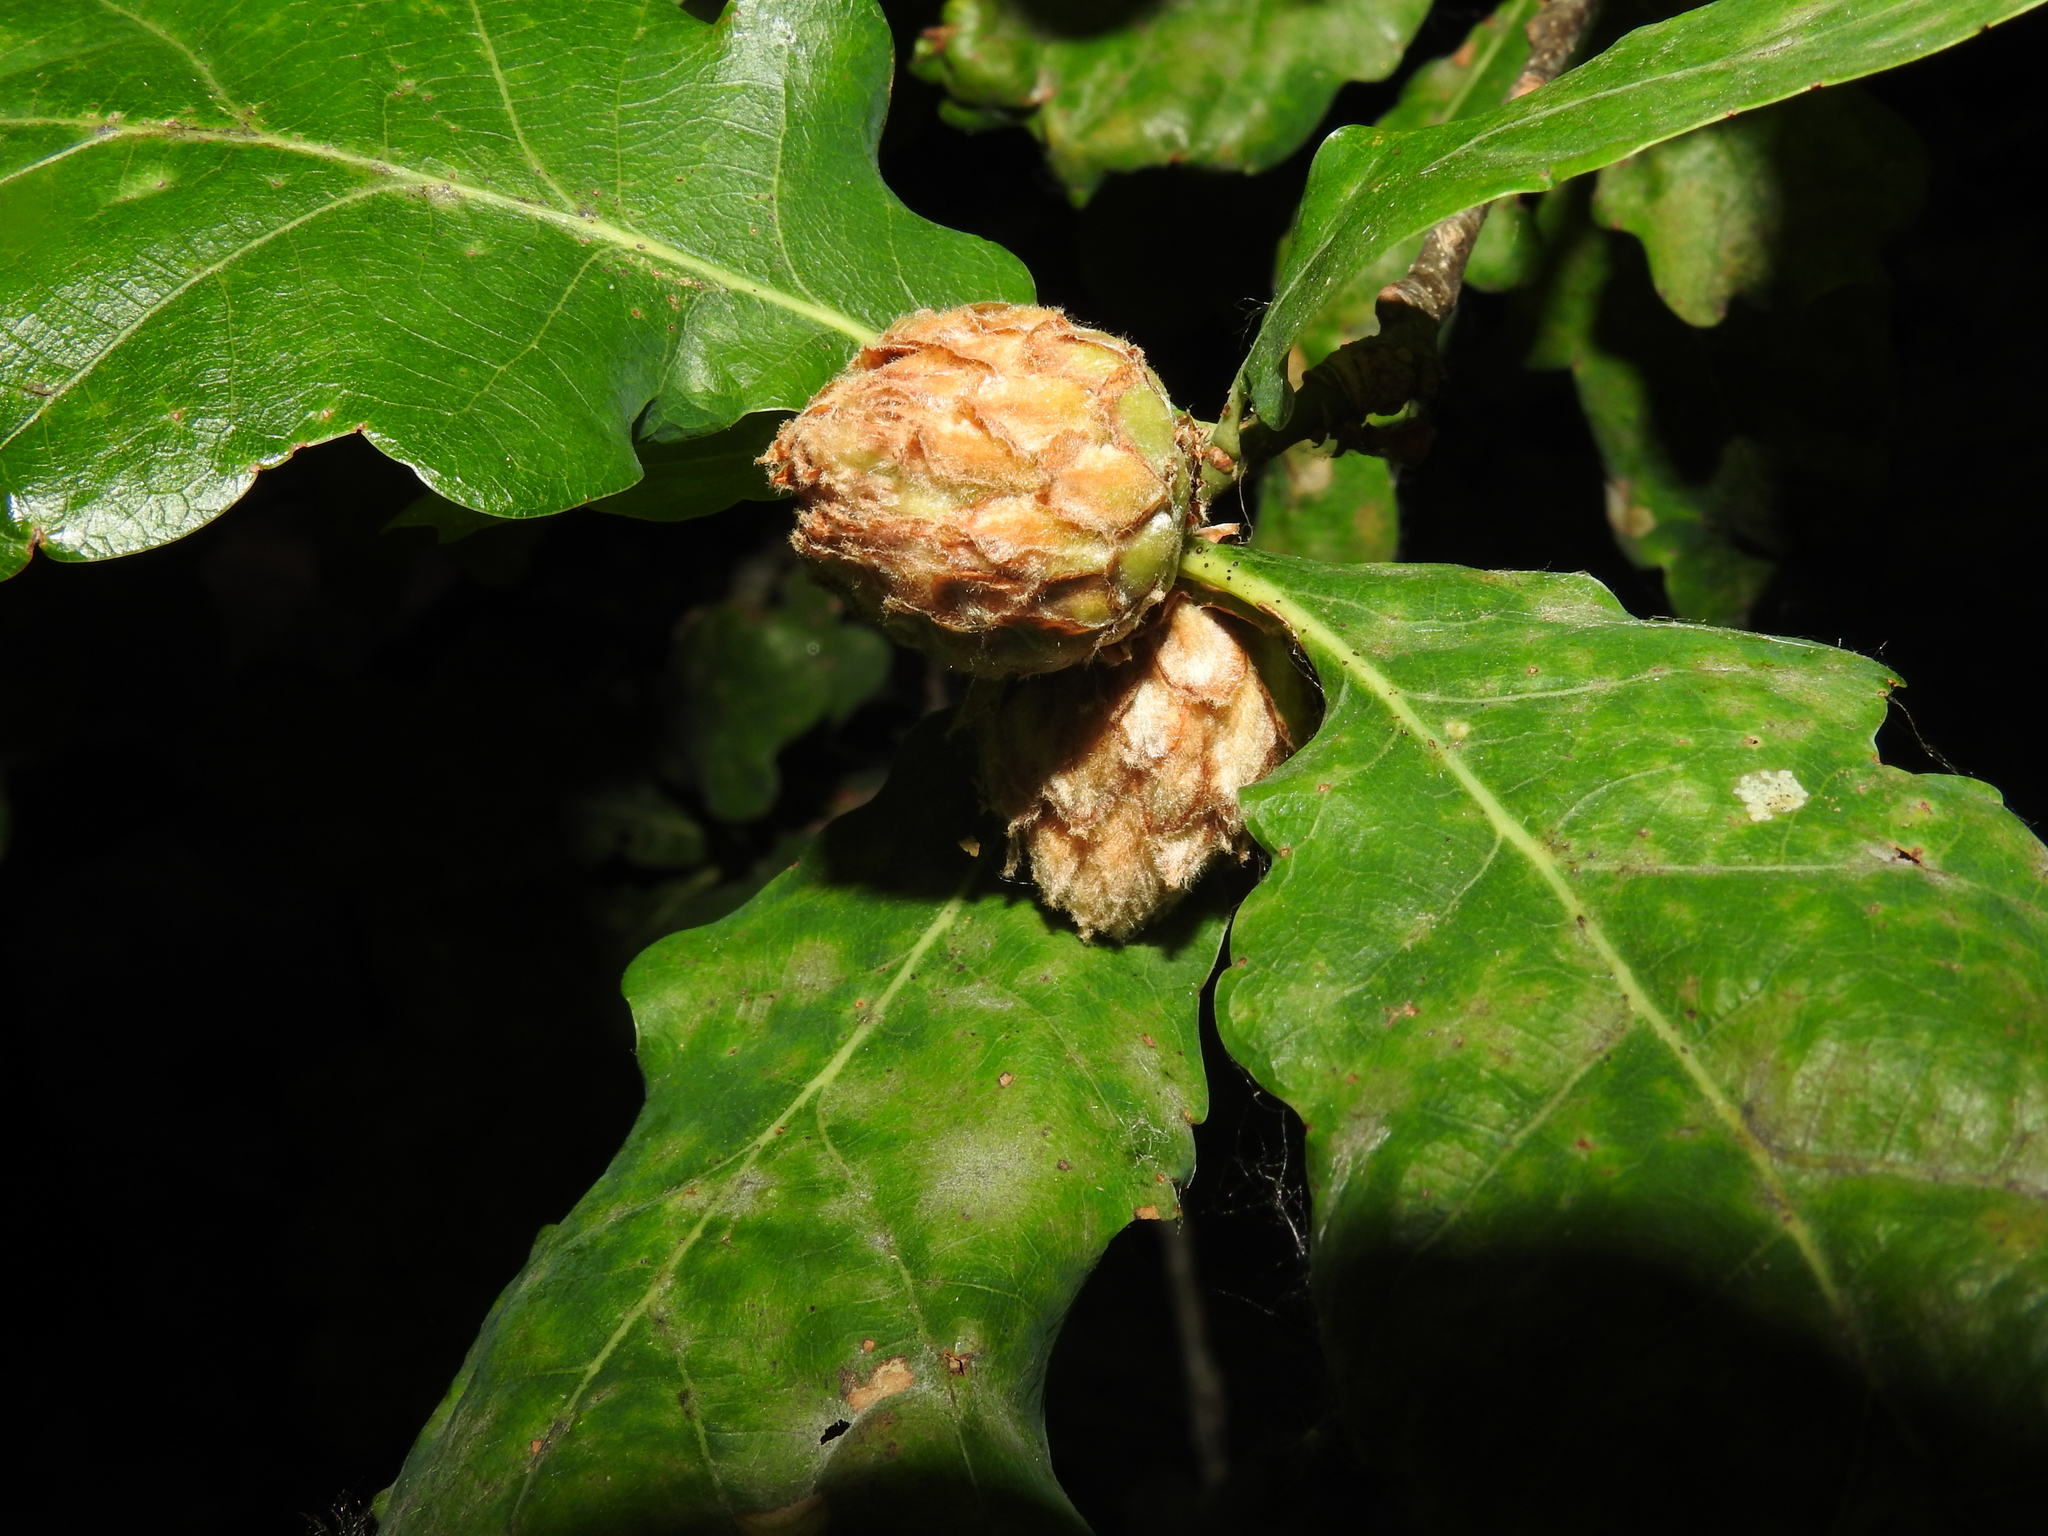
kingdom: Animalia
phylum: Arthropoda
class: Insecta
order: Hymenoptera
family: Cynipidae
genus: Andricus
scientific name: Andricus foecundatrix
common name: Artichoke gall
